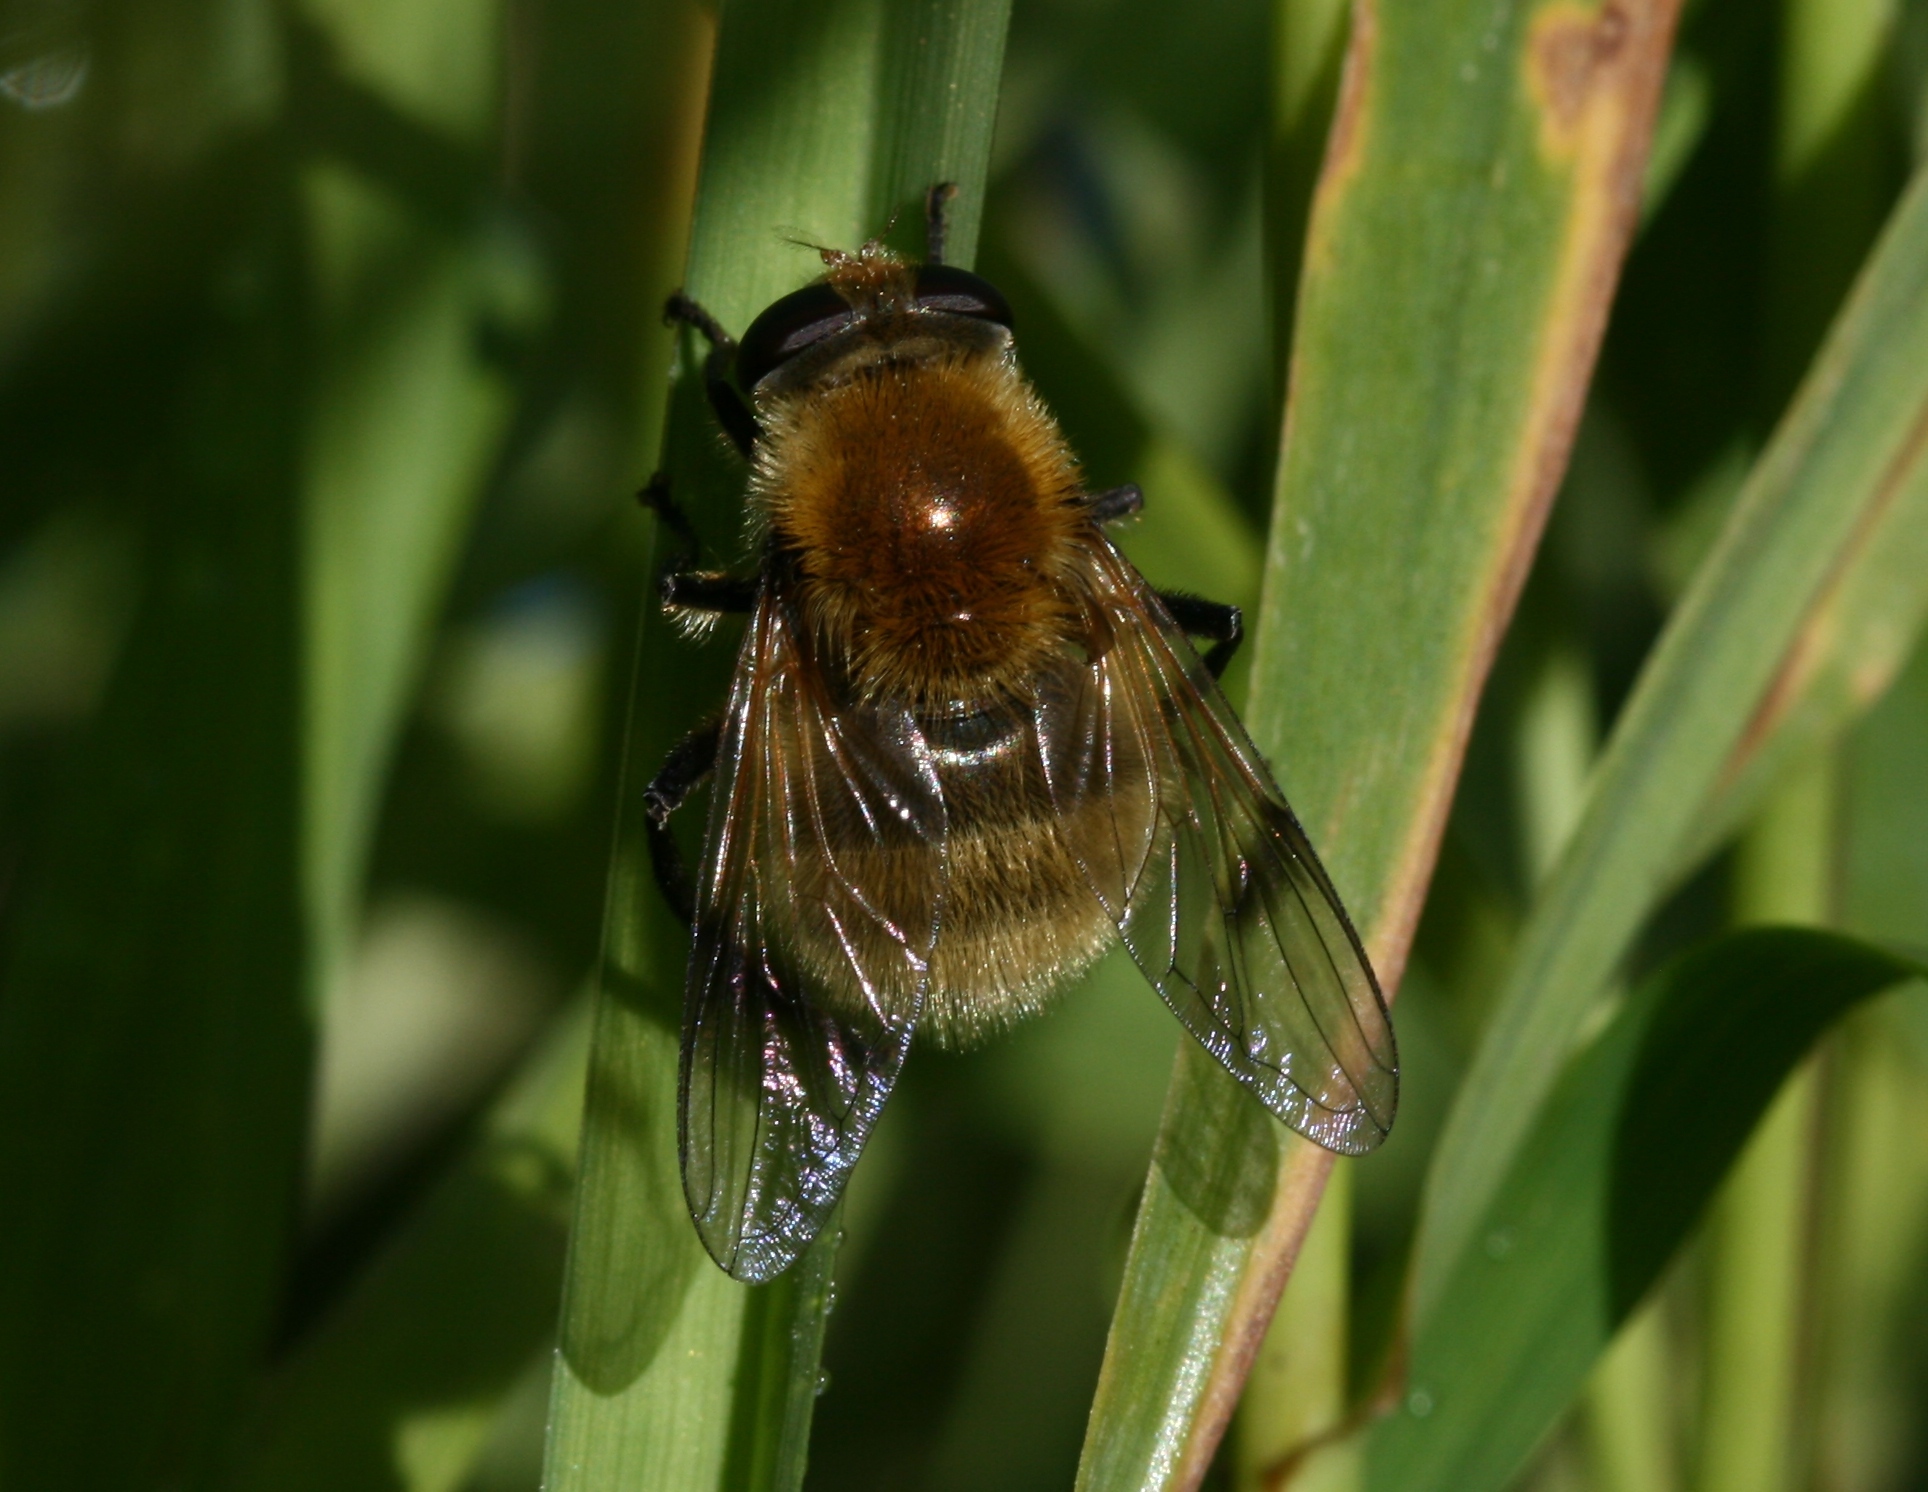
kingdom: Animalia
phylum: Arthropoda
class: Insecta
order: Diptera
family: Syrphidae
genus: Sericomyia
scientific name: Sericomyia superbiens
